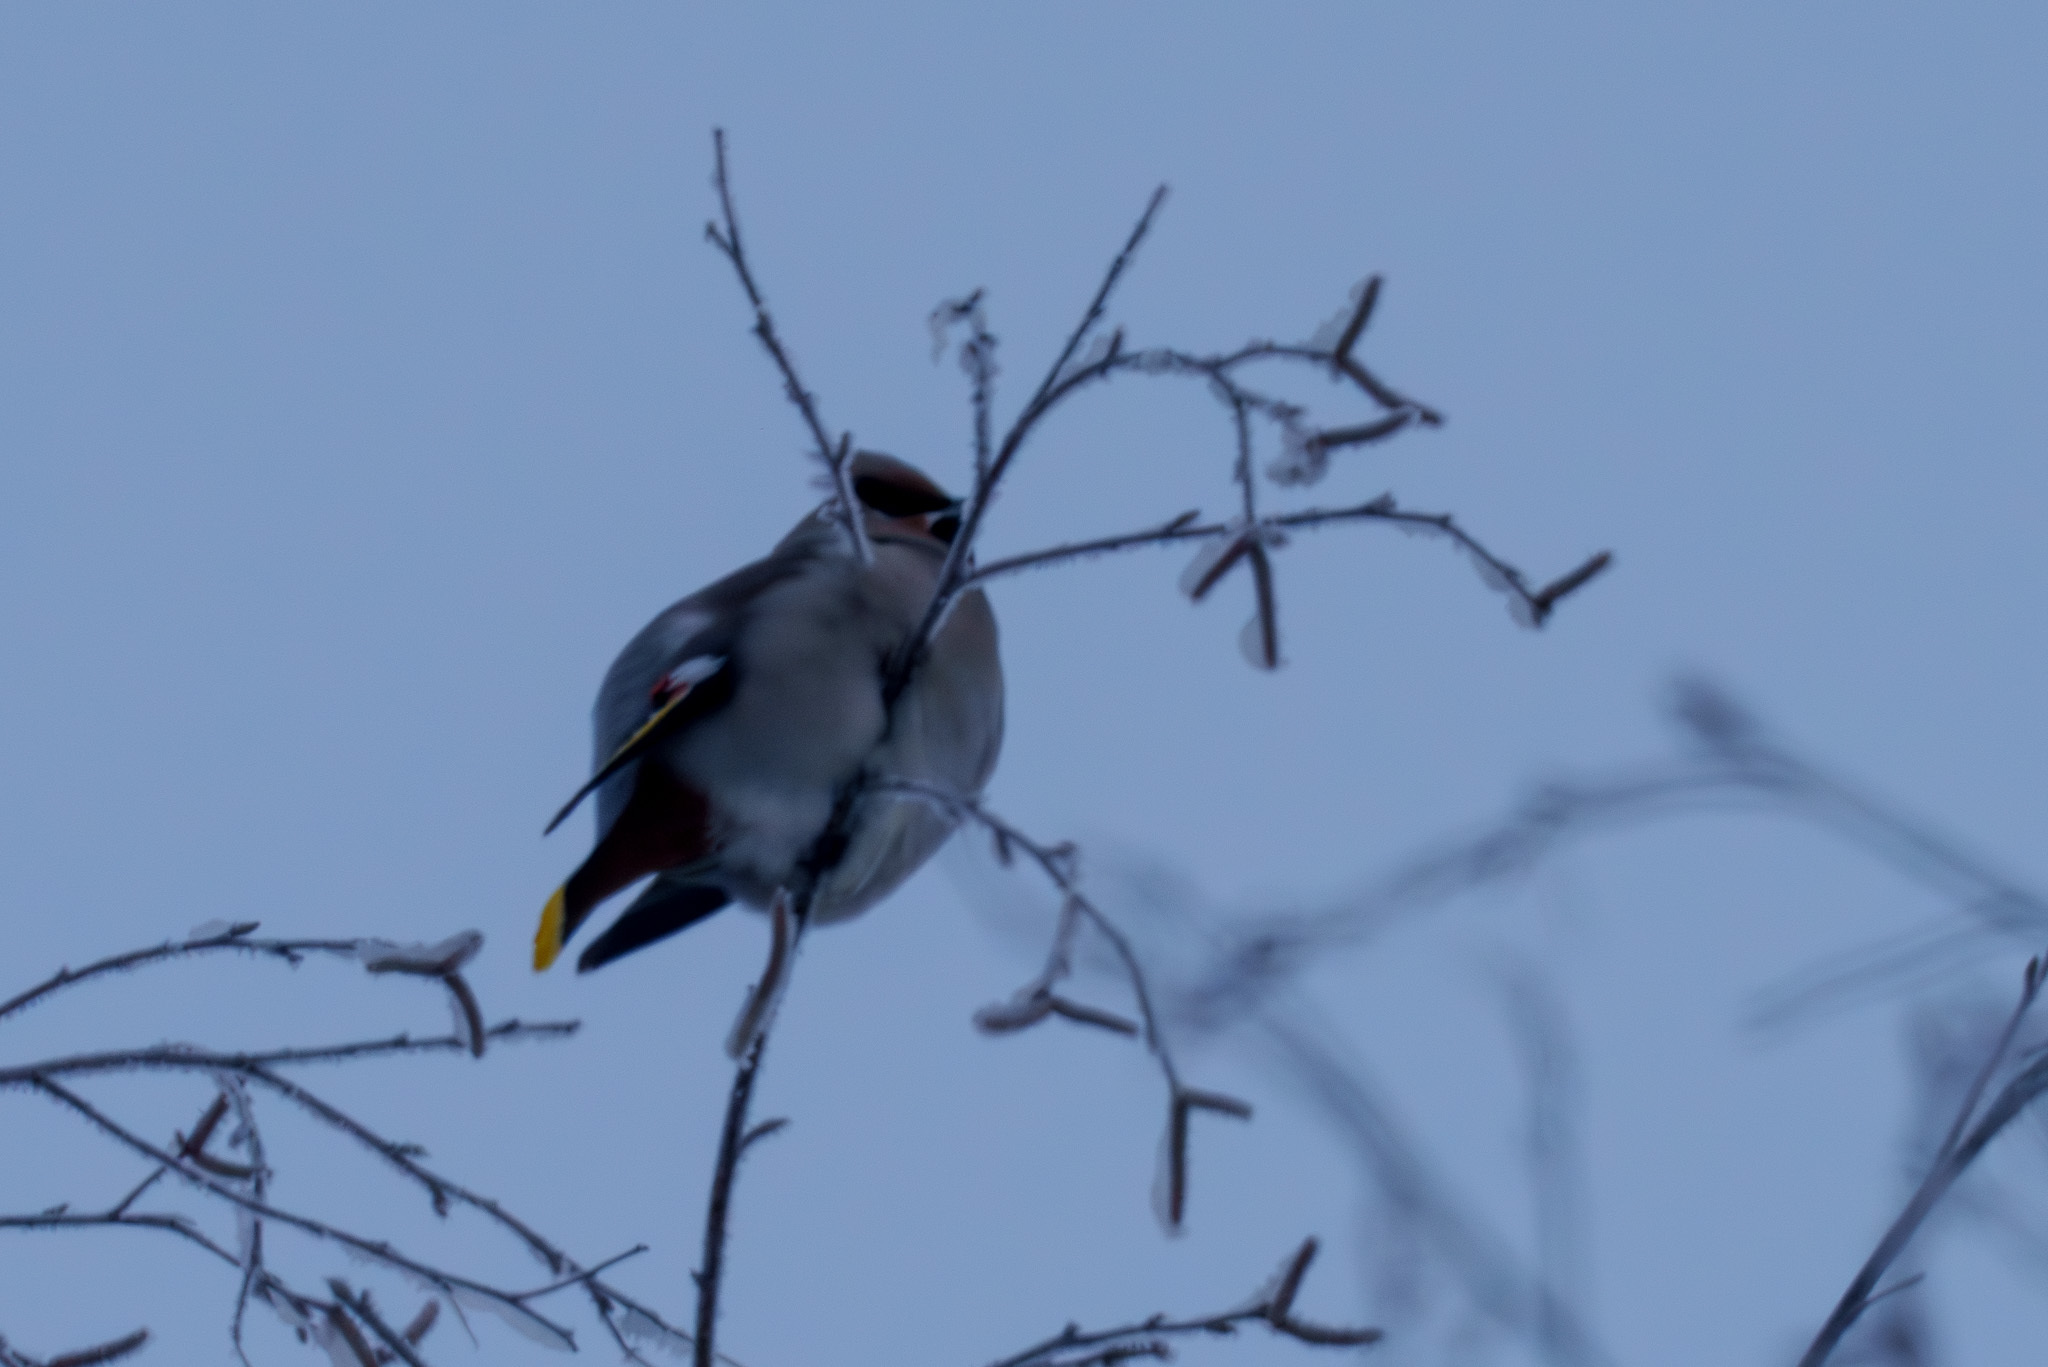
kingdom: Animalia
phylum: Chordata
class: Aves
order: Passeriformes
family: Bombycillidae
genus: Bombycilla
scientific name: Bombycilla garrulus
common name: Bohemian waxwing
